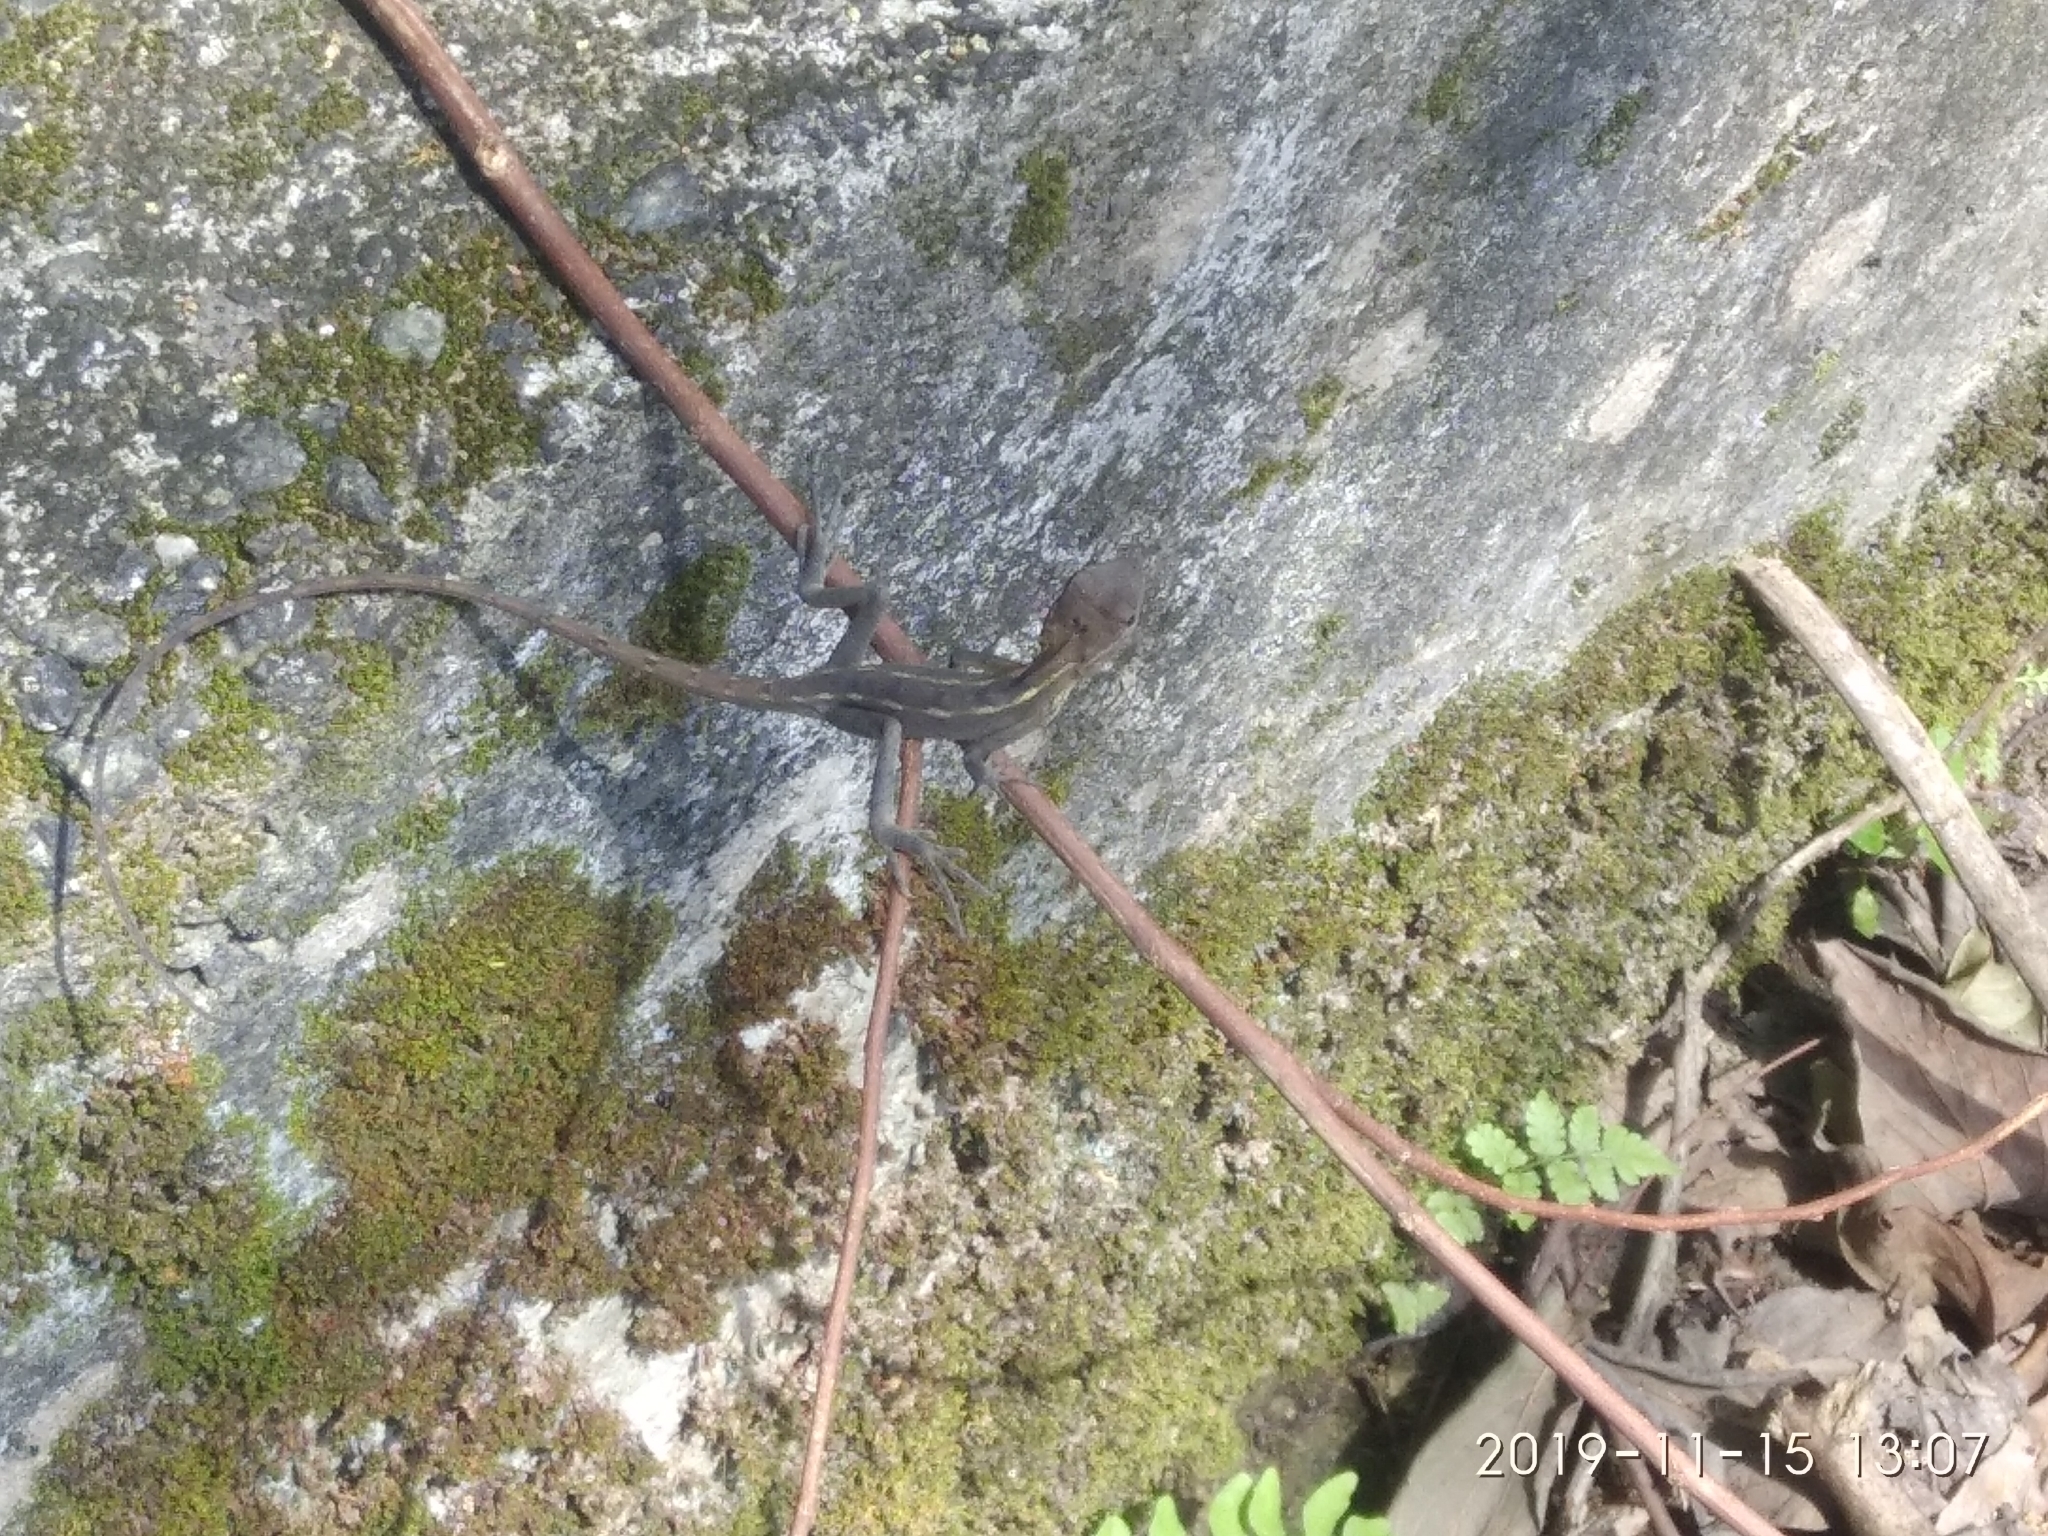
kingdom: Animalia
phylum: Chordata
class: Squamata
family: Agamidae
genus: Calotes
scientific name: Calotes versicolor
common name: Oriental garden lizard
